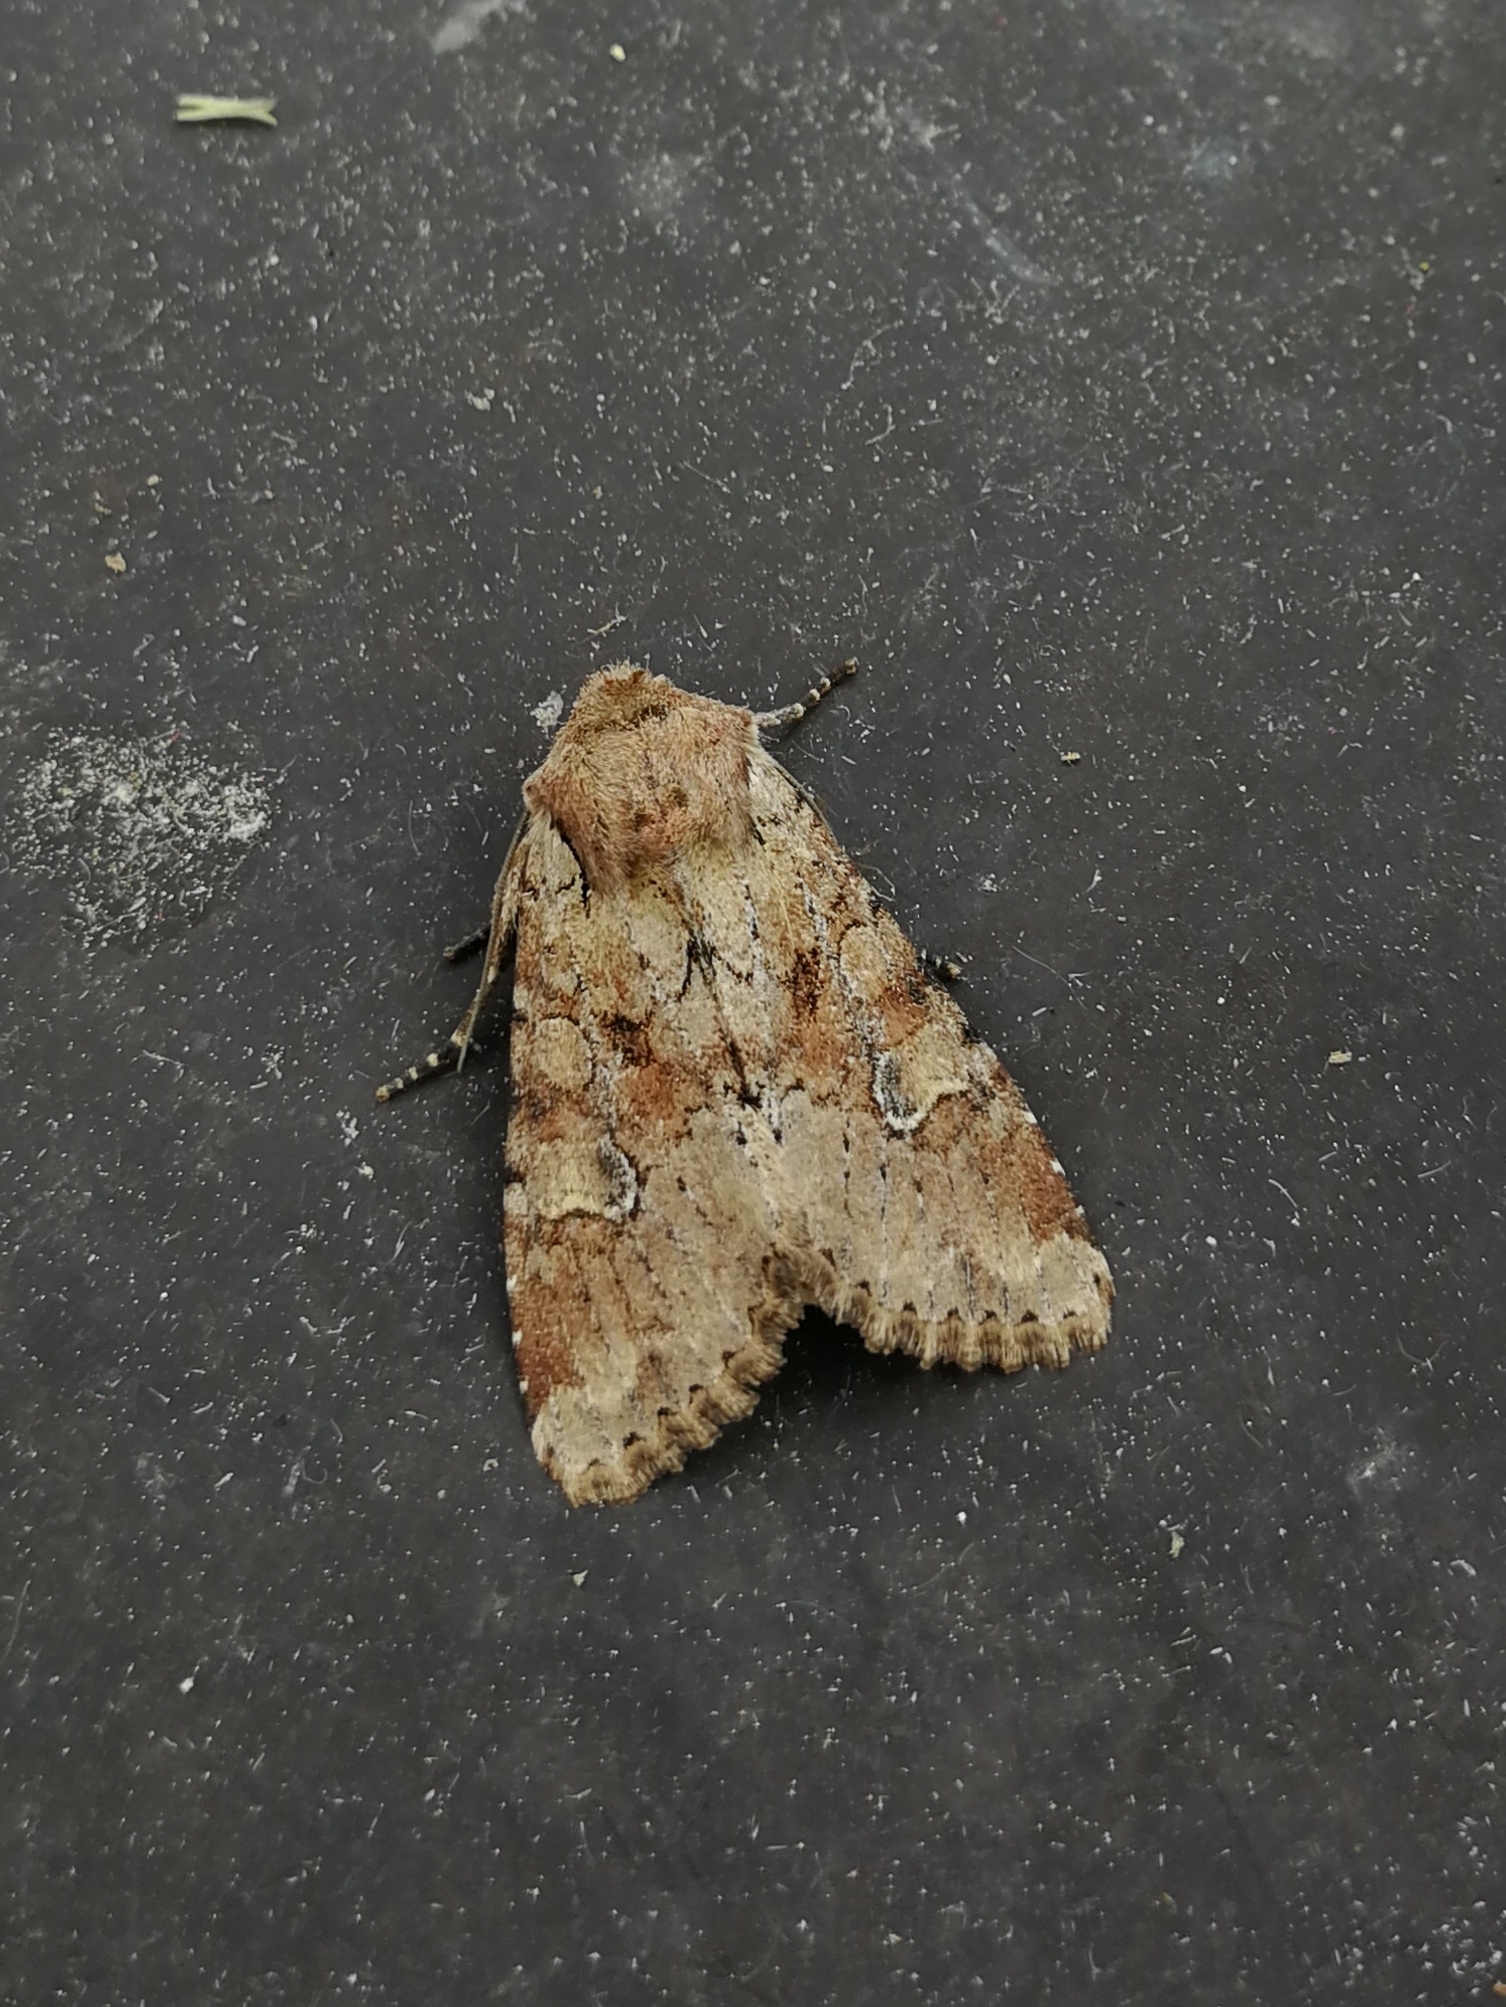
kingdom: Animalia
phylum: Arthropoda
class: Insecta
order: Lepidoptera
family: Noctuidae
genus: Apamea
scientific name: Apamea sordens
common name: Rustic shoulder-knot
